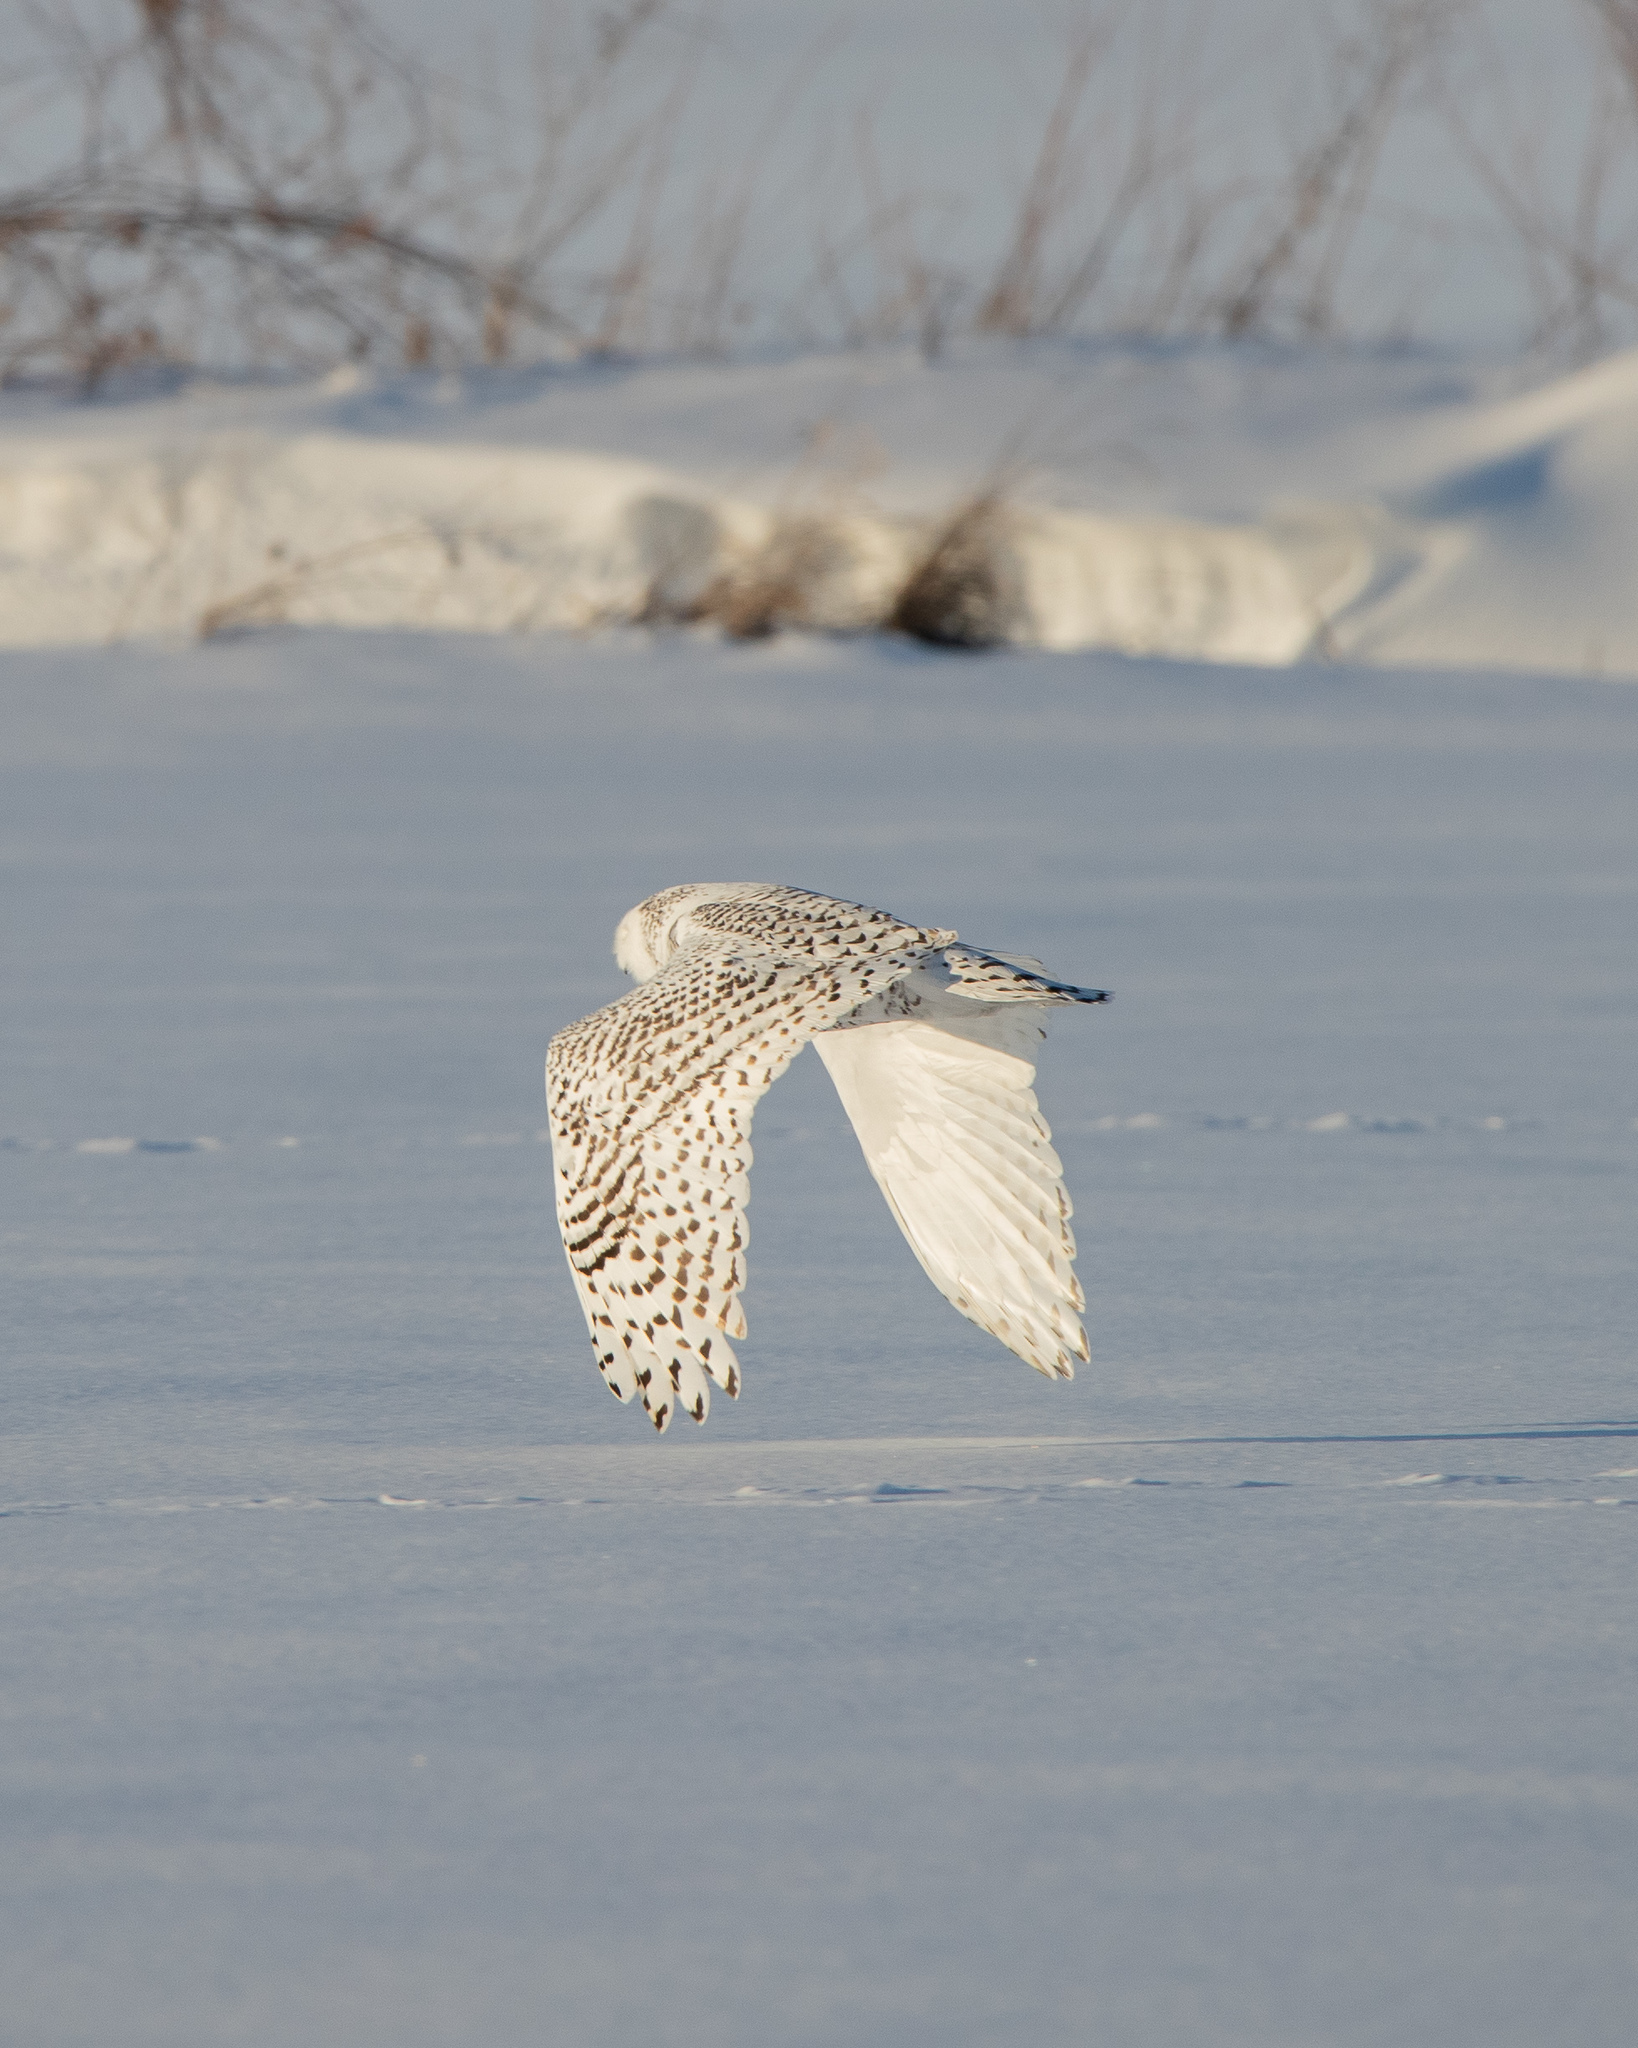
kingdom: Animalia
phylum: Chordata
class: Aves
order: Strigiformes
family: Strigidae
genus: Bubo
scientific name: Bubo scandiacus
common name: Snowy owl
